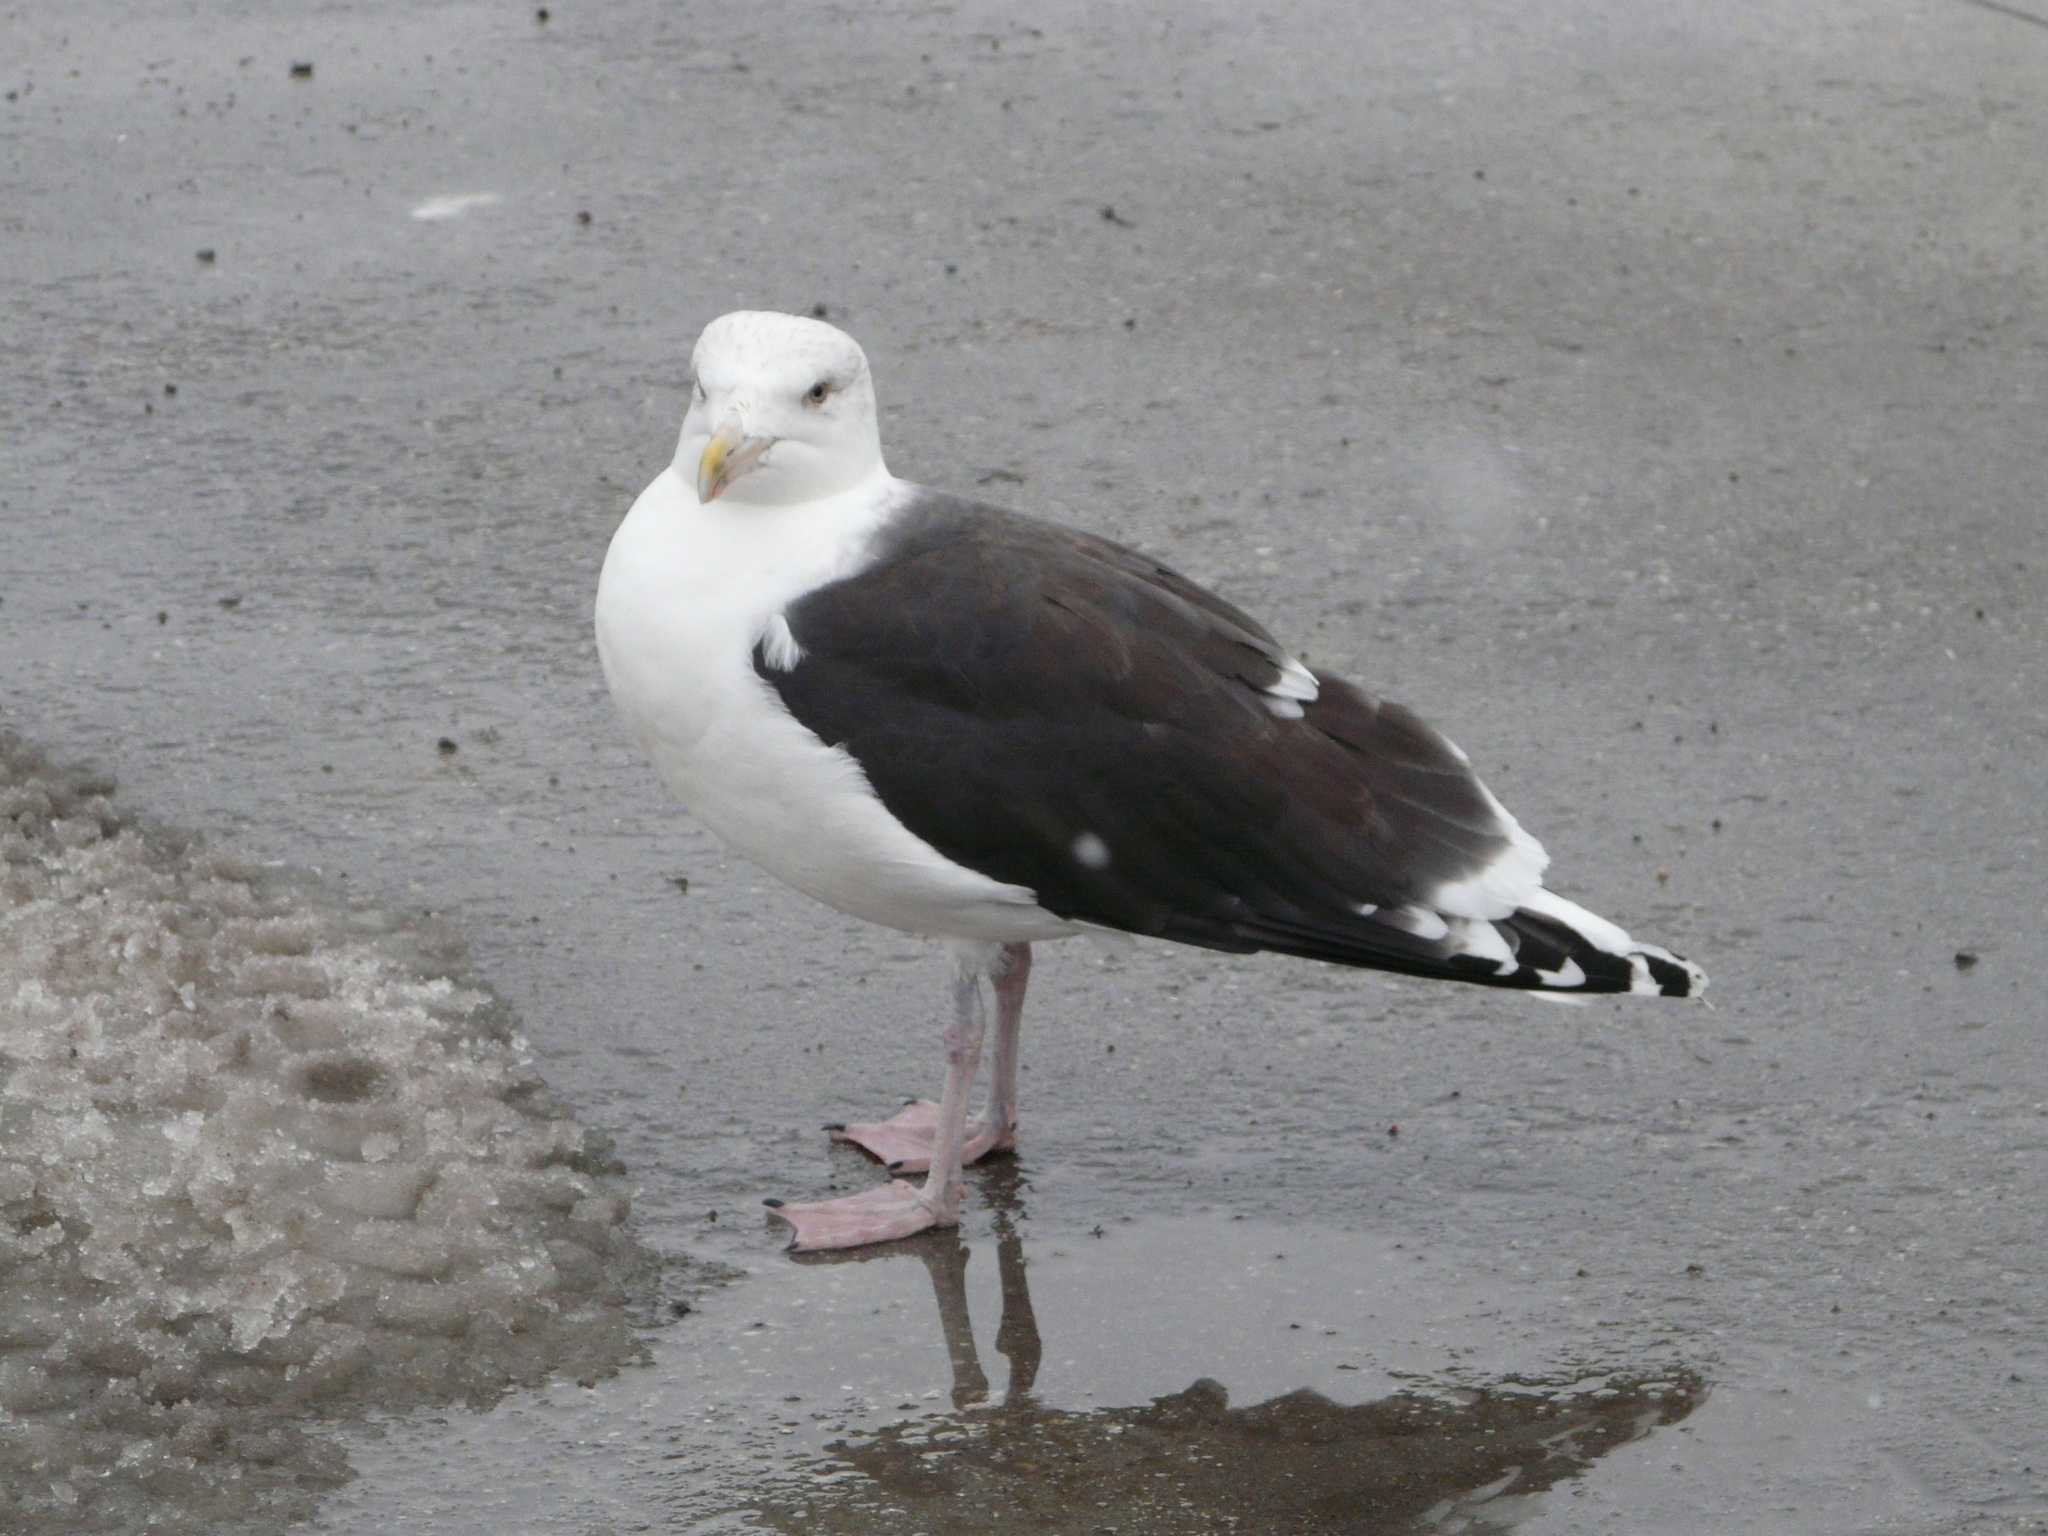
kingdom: Animalia
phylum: Chordata
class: Aves
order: Charadriiformes
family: Laridae
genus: Larus
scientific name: Larus marinus
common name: Great black-backed gull
